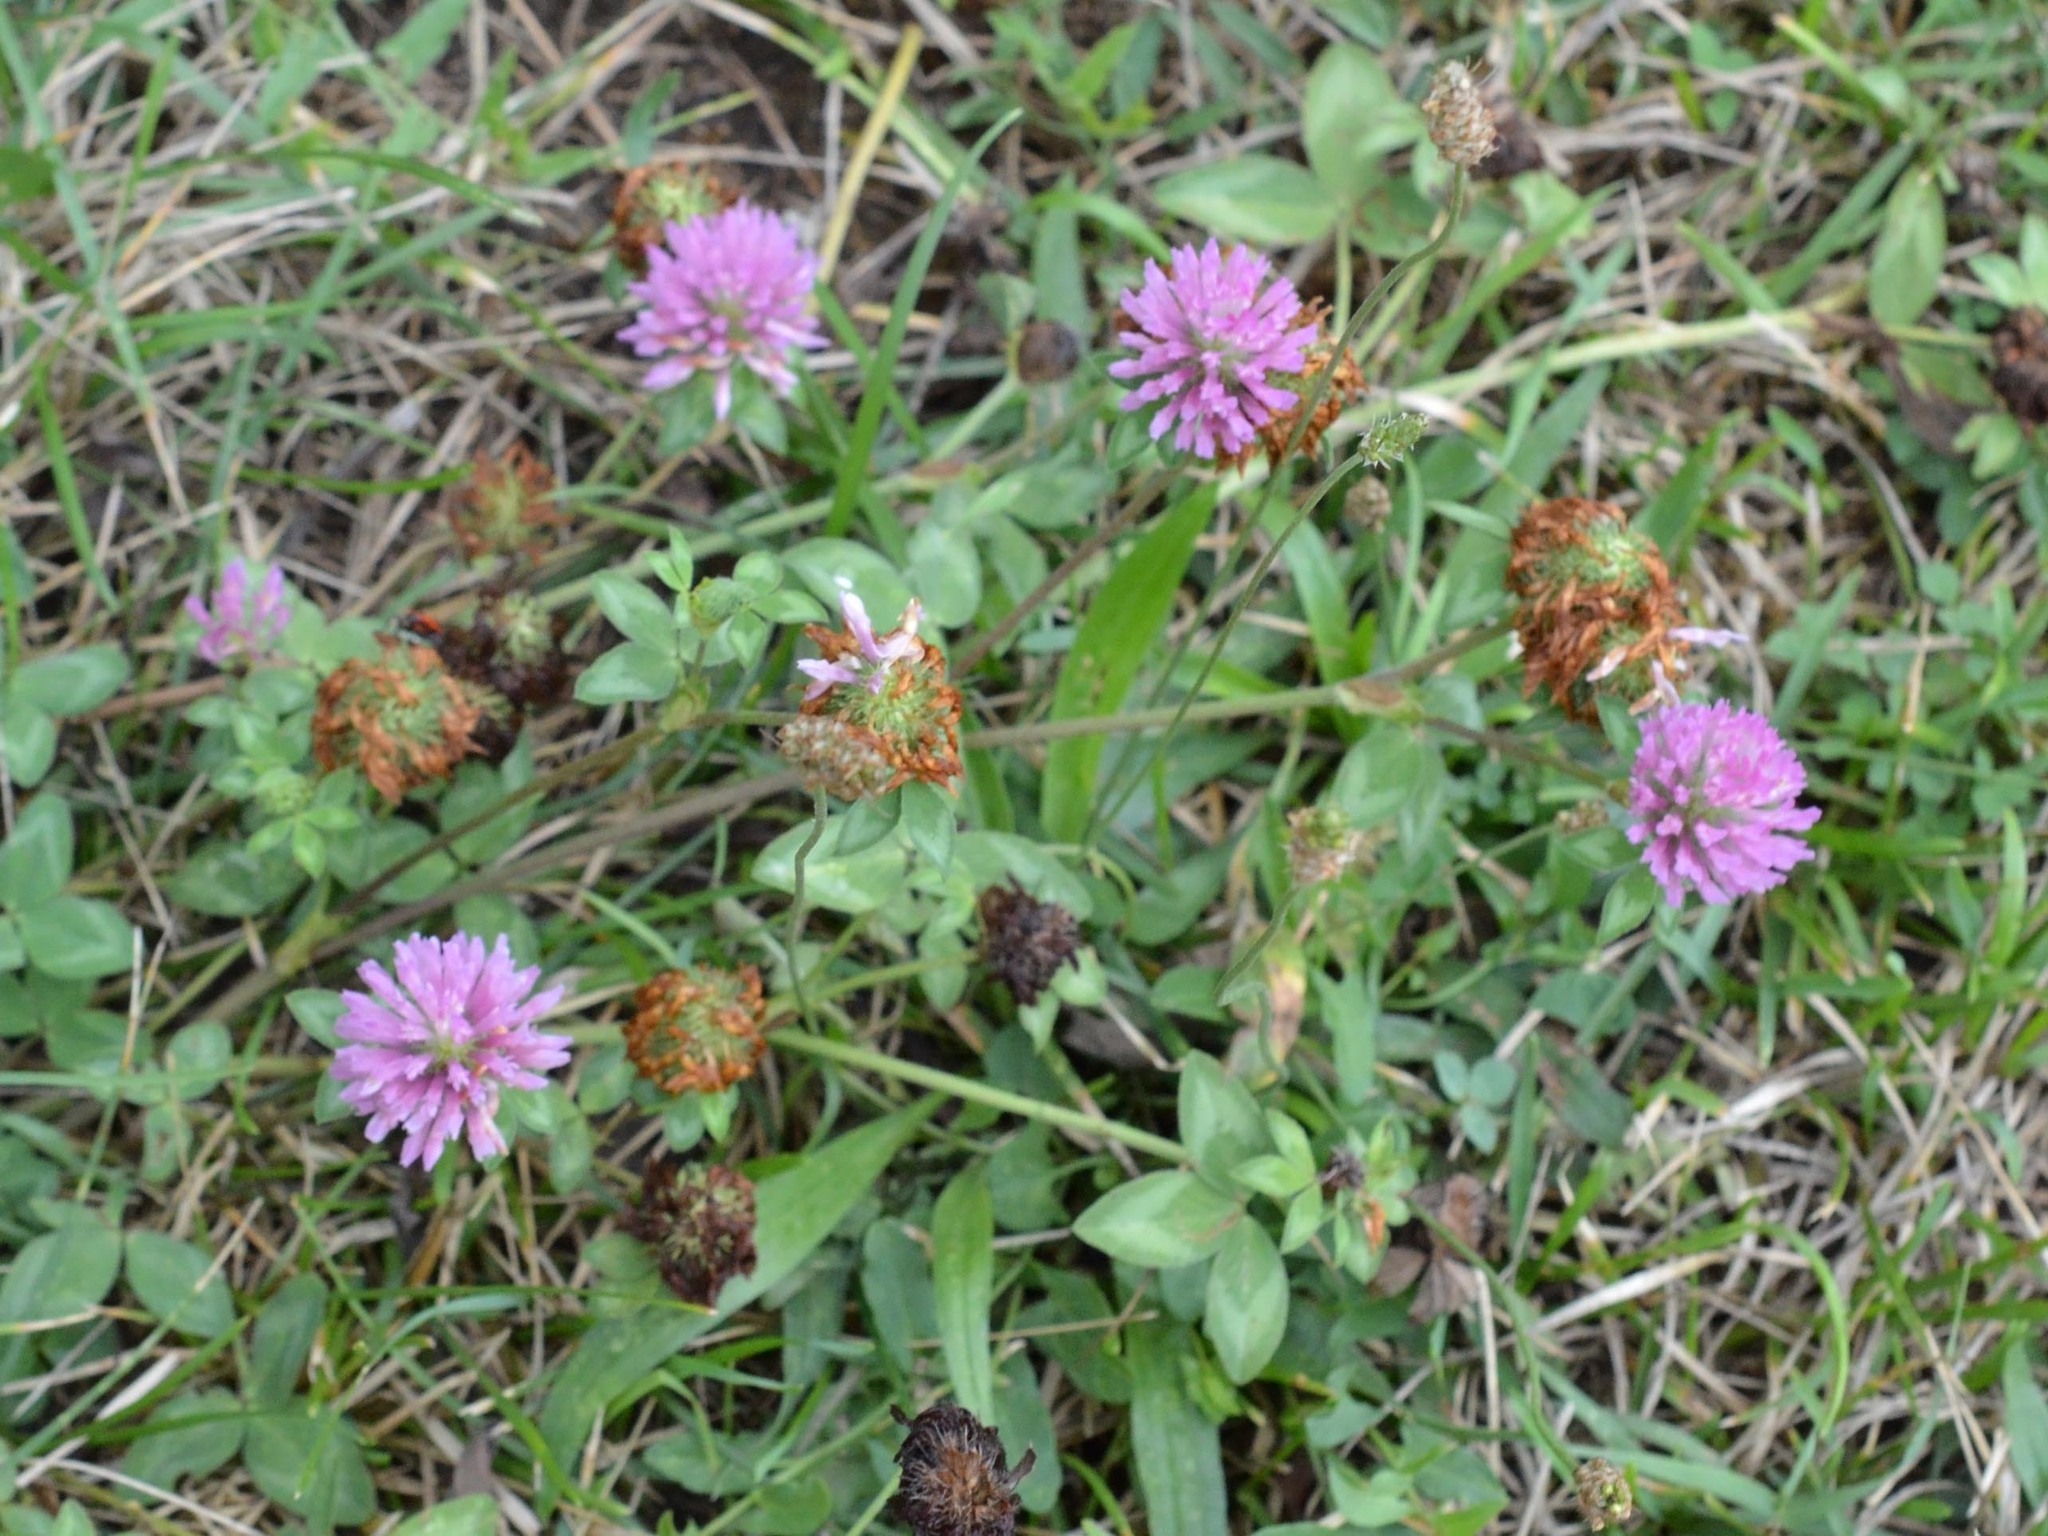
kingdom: Plantae
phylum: Tracheophyta
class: Magnoliopsida
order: Fabales
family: Fabaceae
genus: Trifolium
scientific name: Trifolium pratense
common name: Red clover
